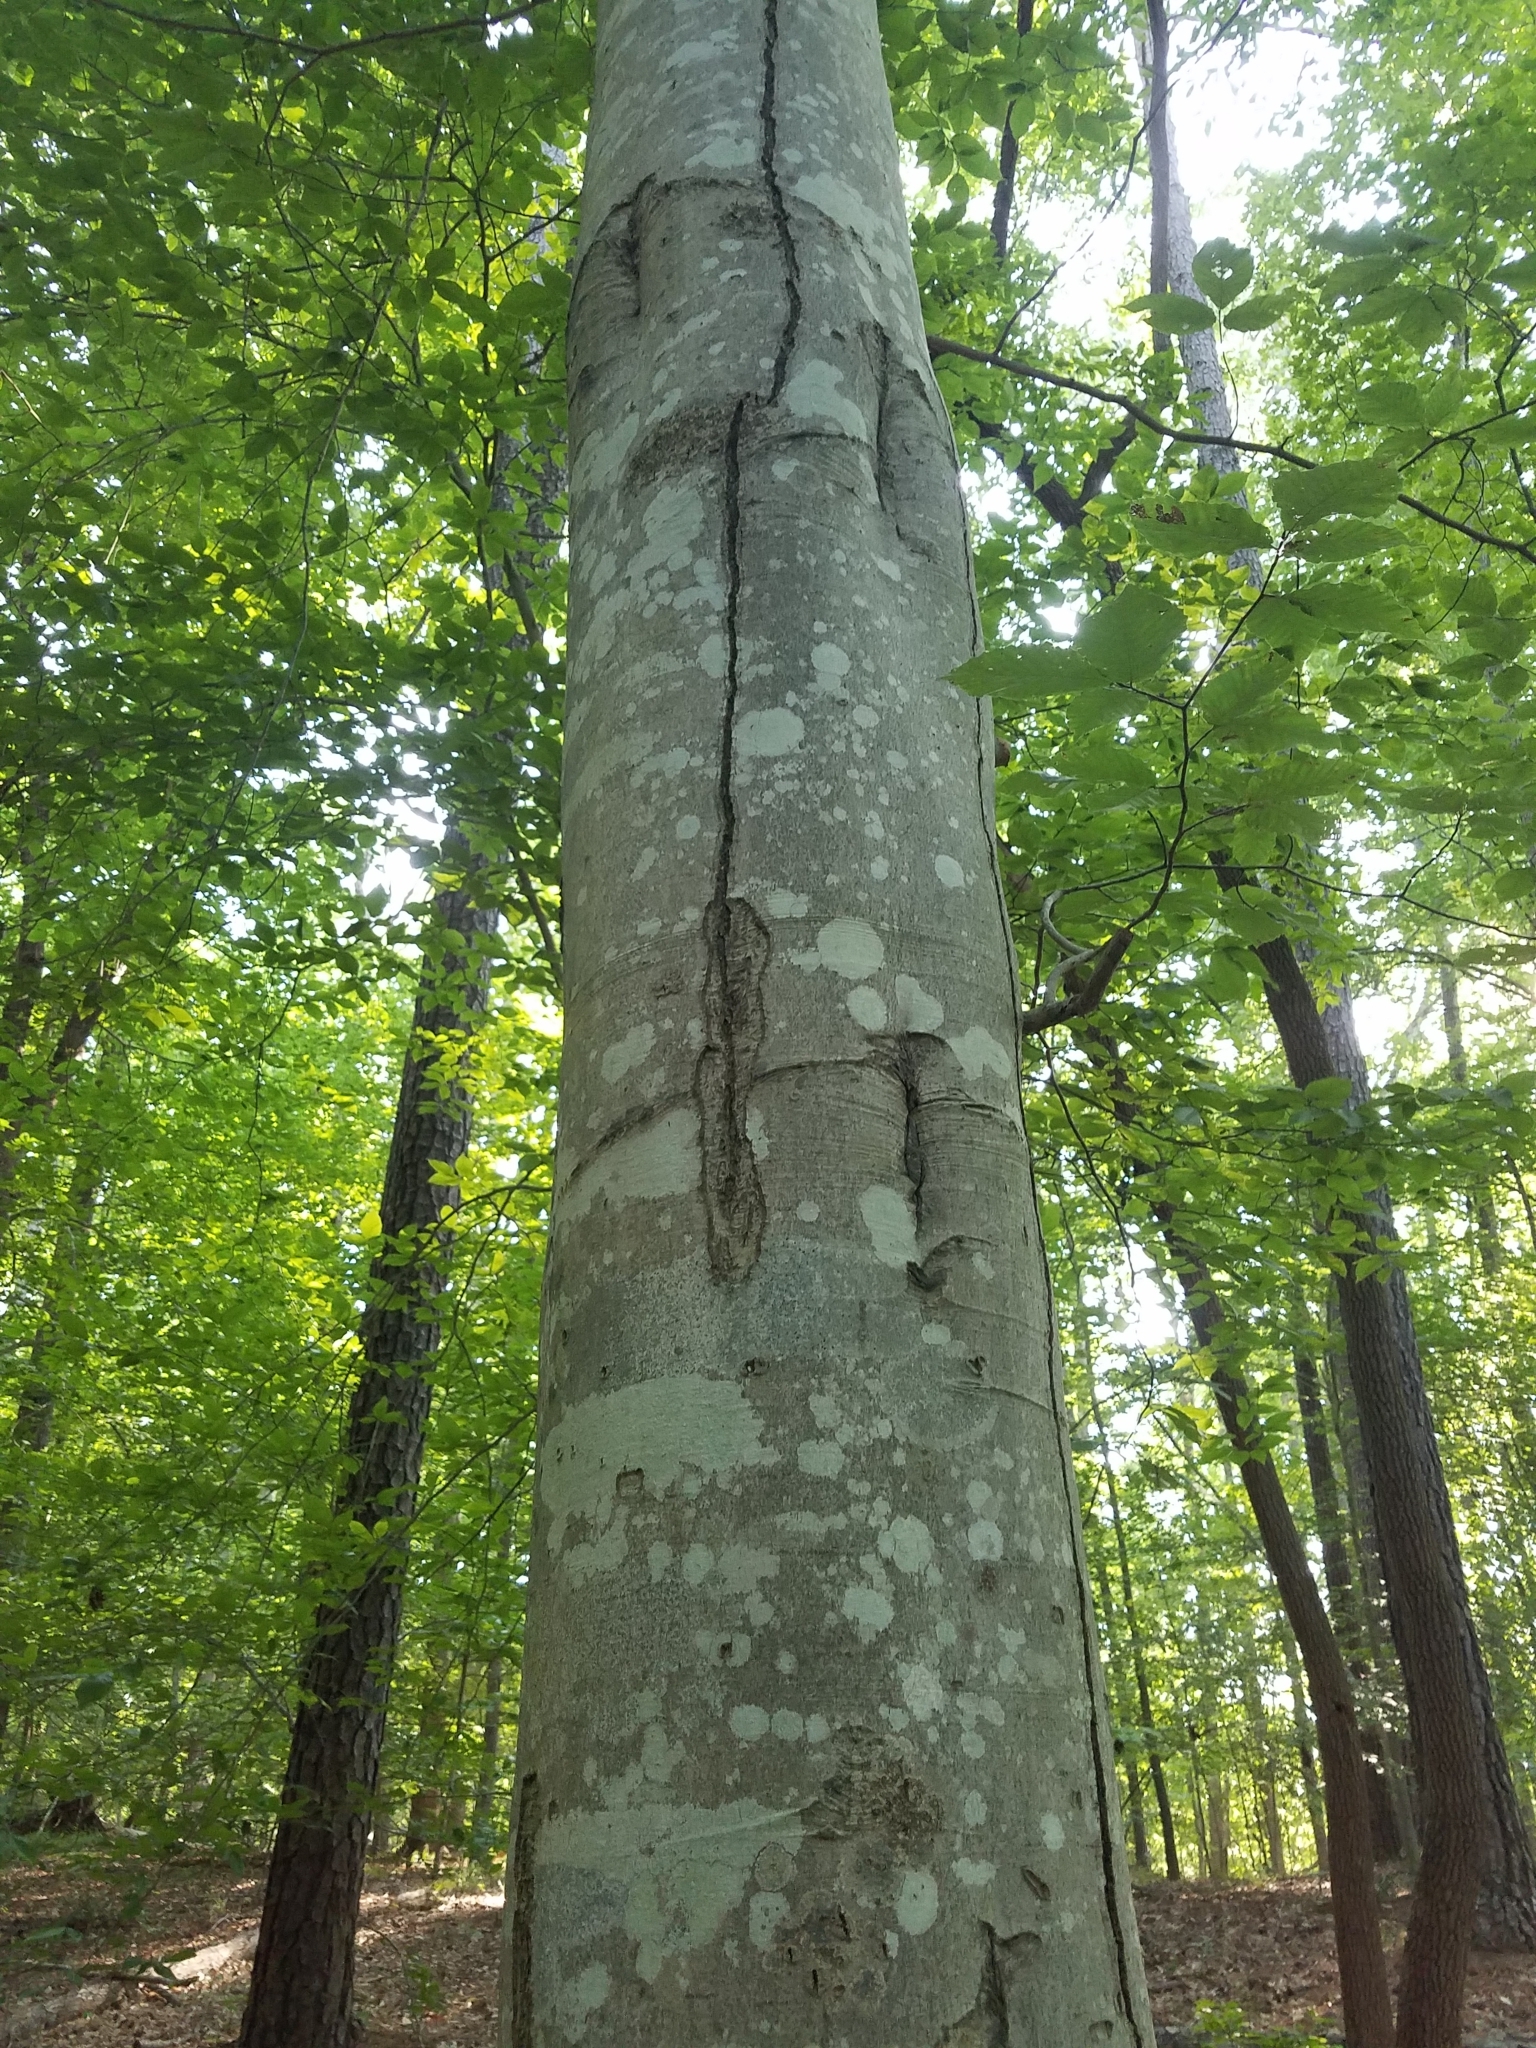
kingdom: Plantae
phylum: Tracheophyta
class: Magnoliopsida
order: Fagales
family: Fagaceae
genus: Fagus
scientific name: Fagus grandifolia
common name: American beech
